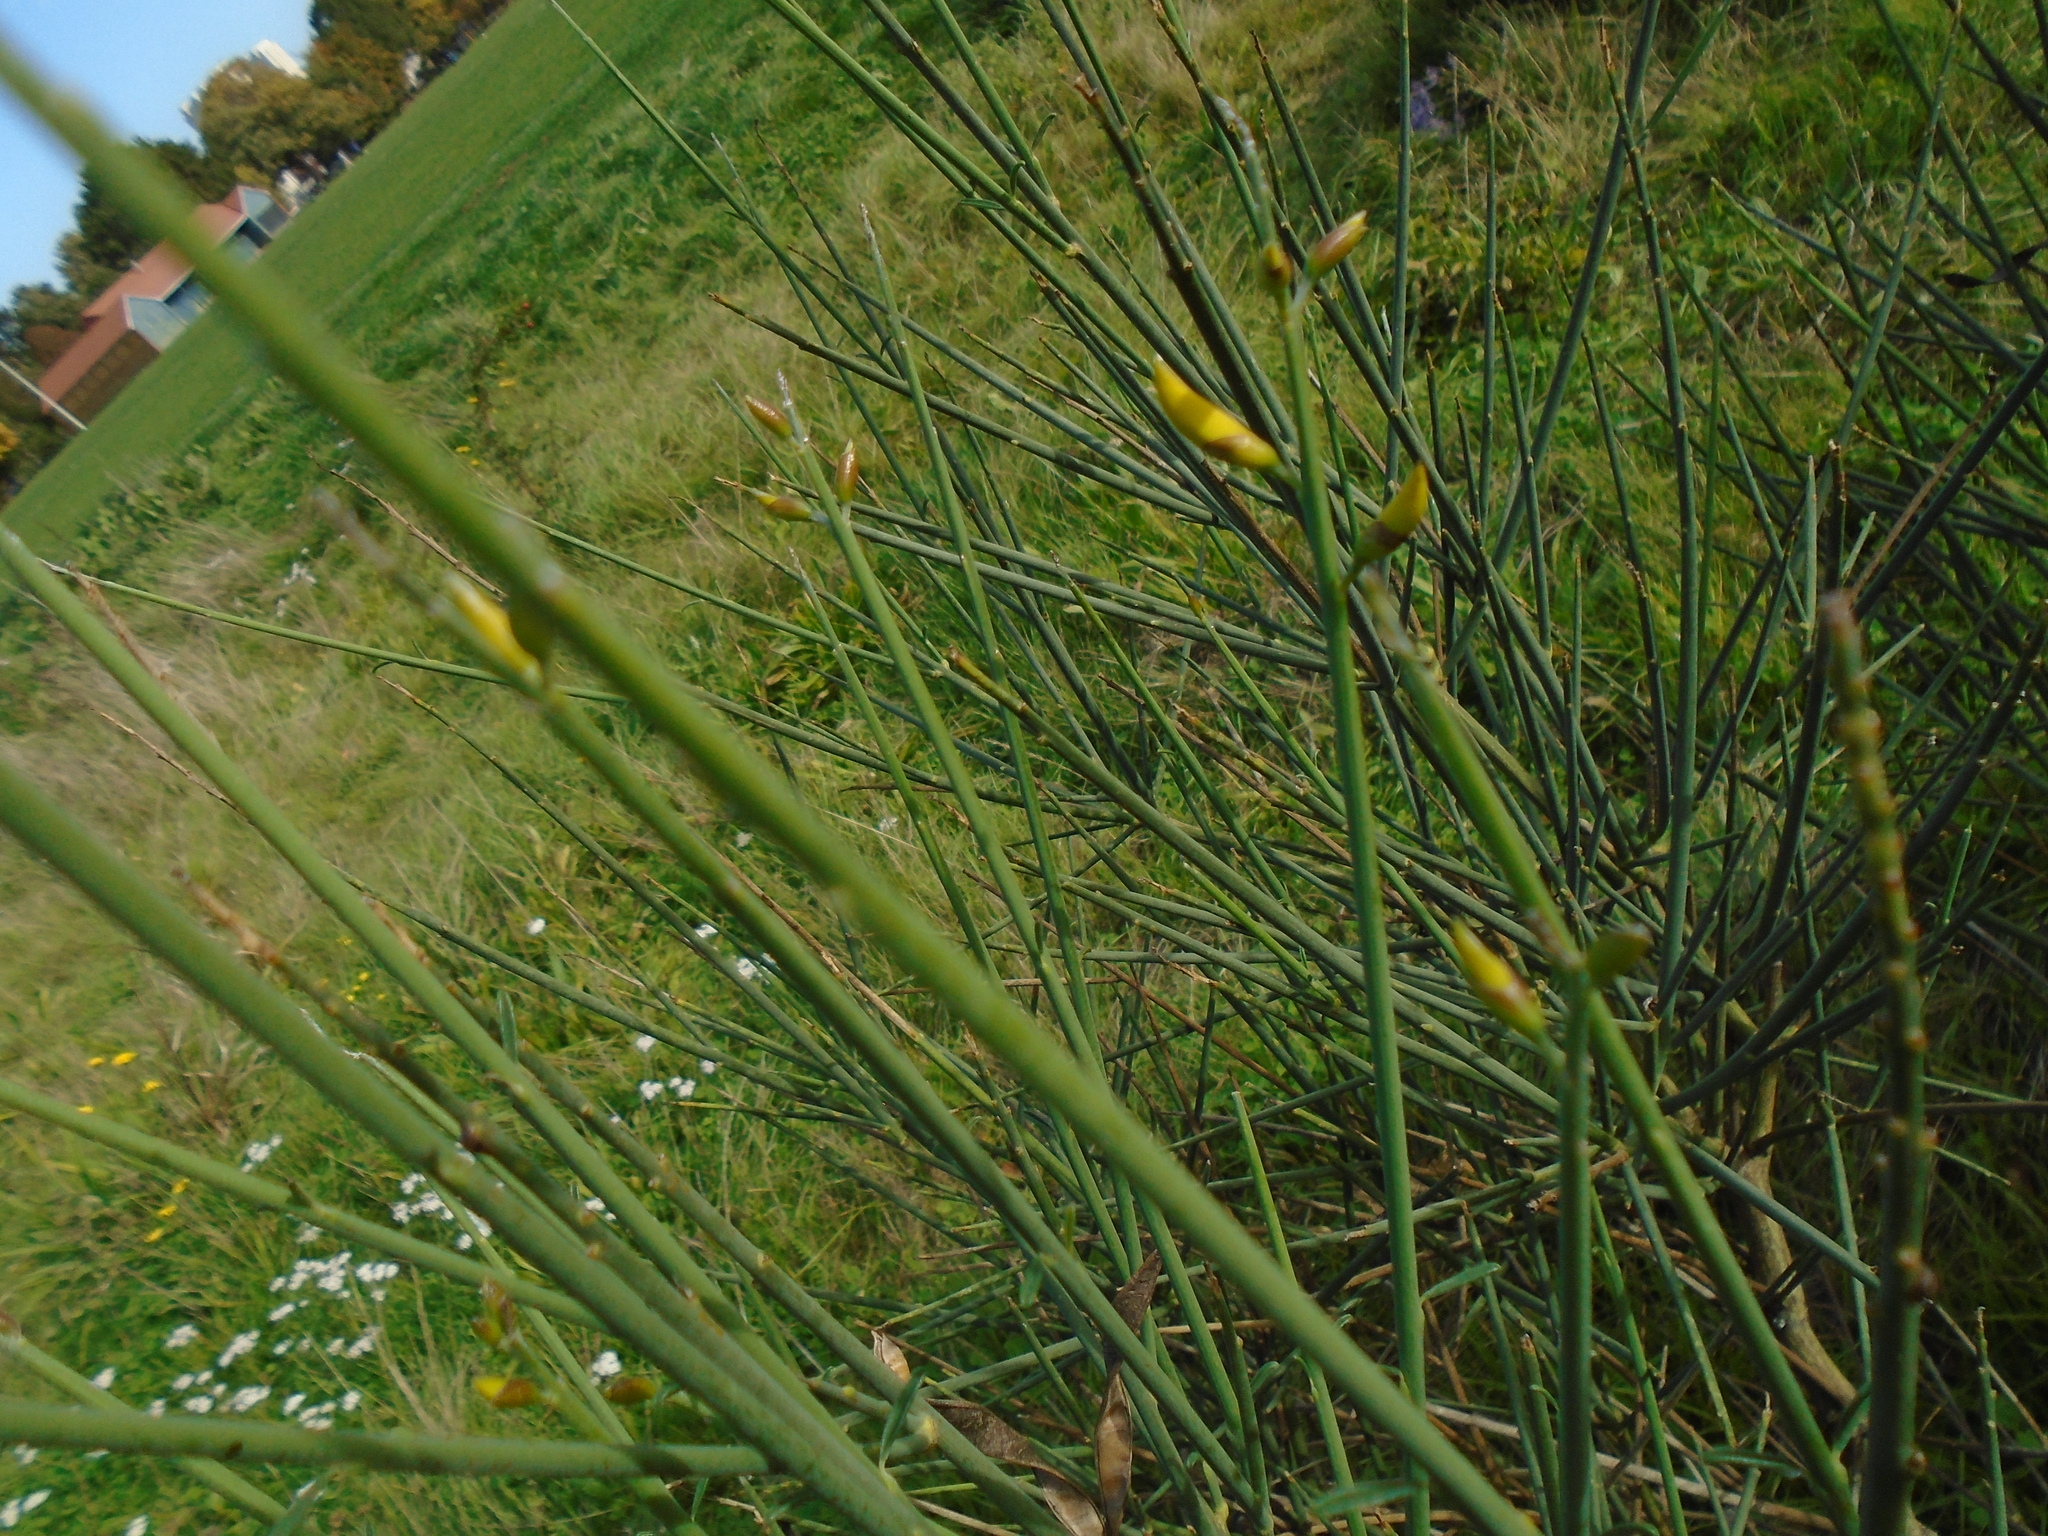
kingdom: Plantae
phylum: Tracheophyta
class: Magnoliopsida
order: Fabales
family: Fabaceae
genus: Spartium
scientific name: Spartium junceum
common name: Spanish broom
